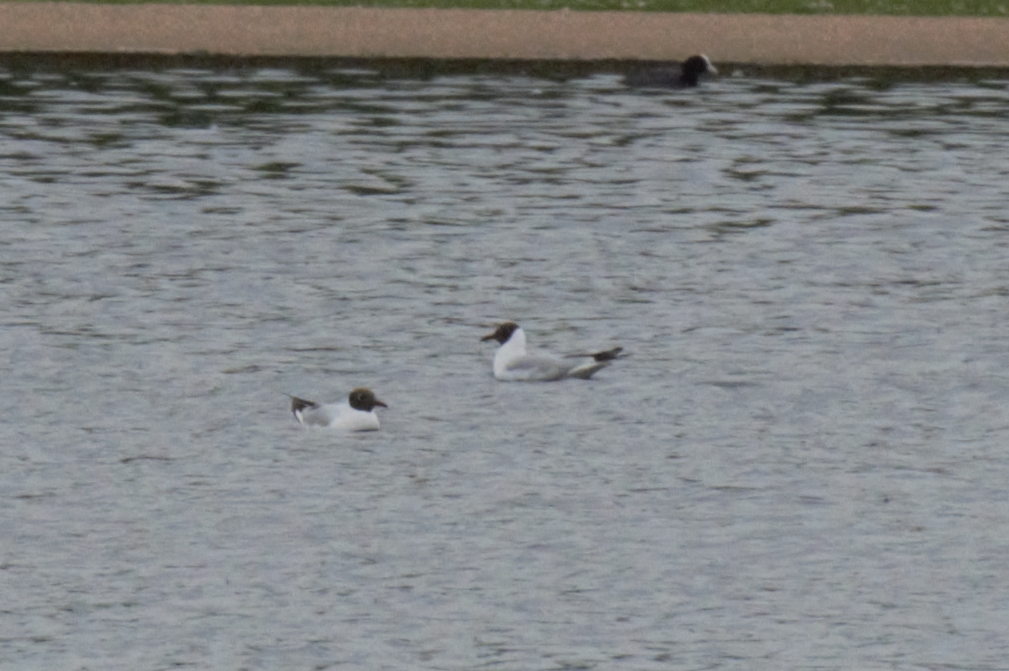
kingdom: Animalia
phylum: Chordata
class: Aves
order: Charadriiformes
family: Laridae
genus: Chroicocephalus
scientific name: Chroicocephalus ridibundus
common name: Black-headed gull
